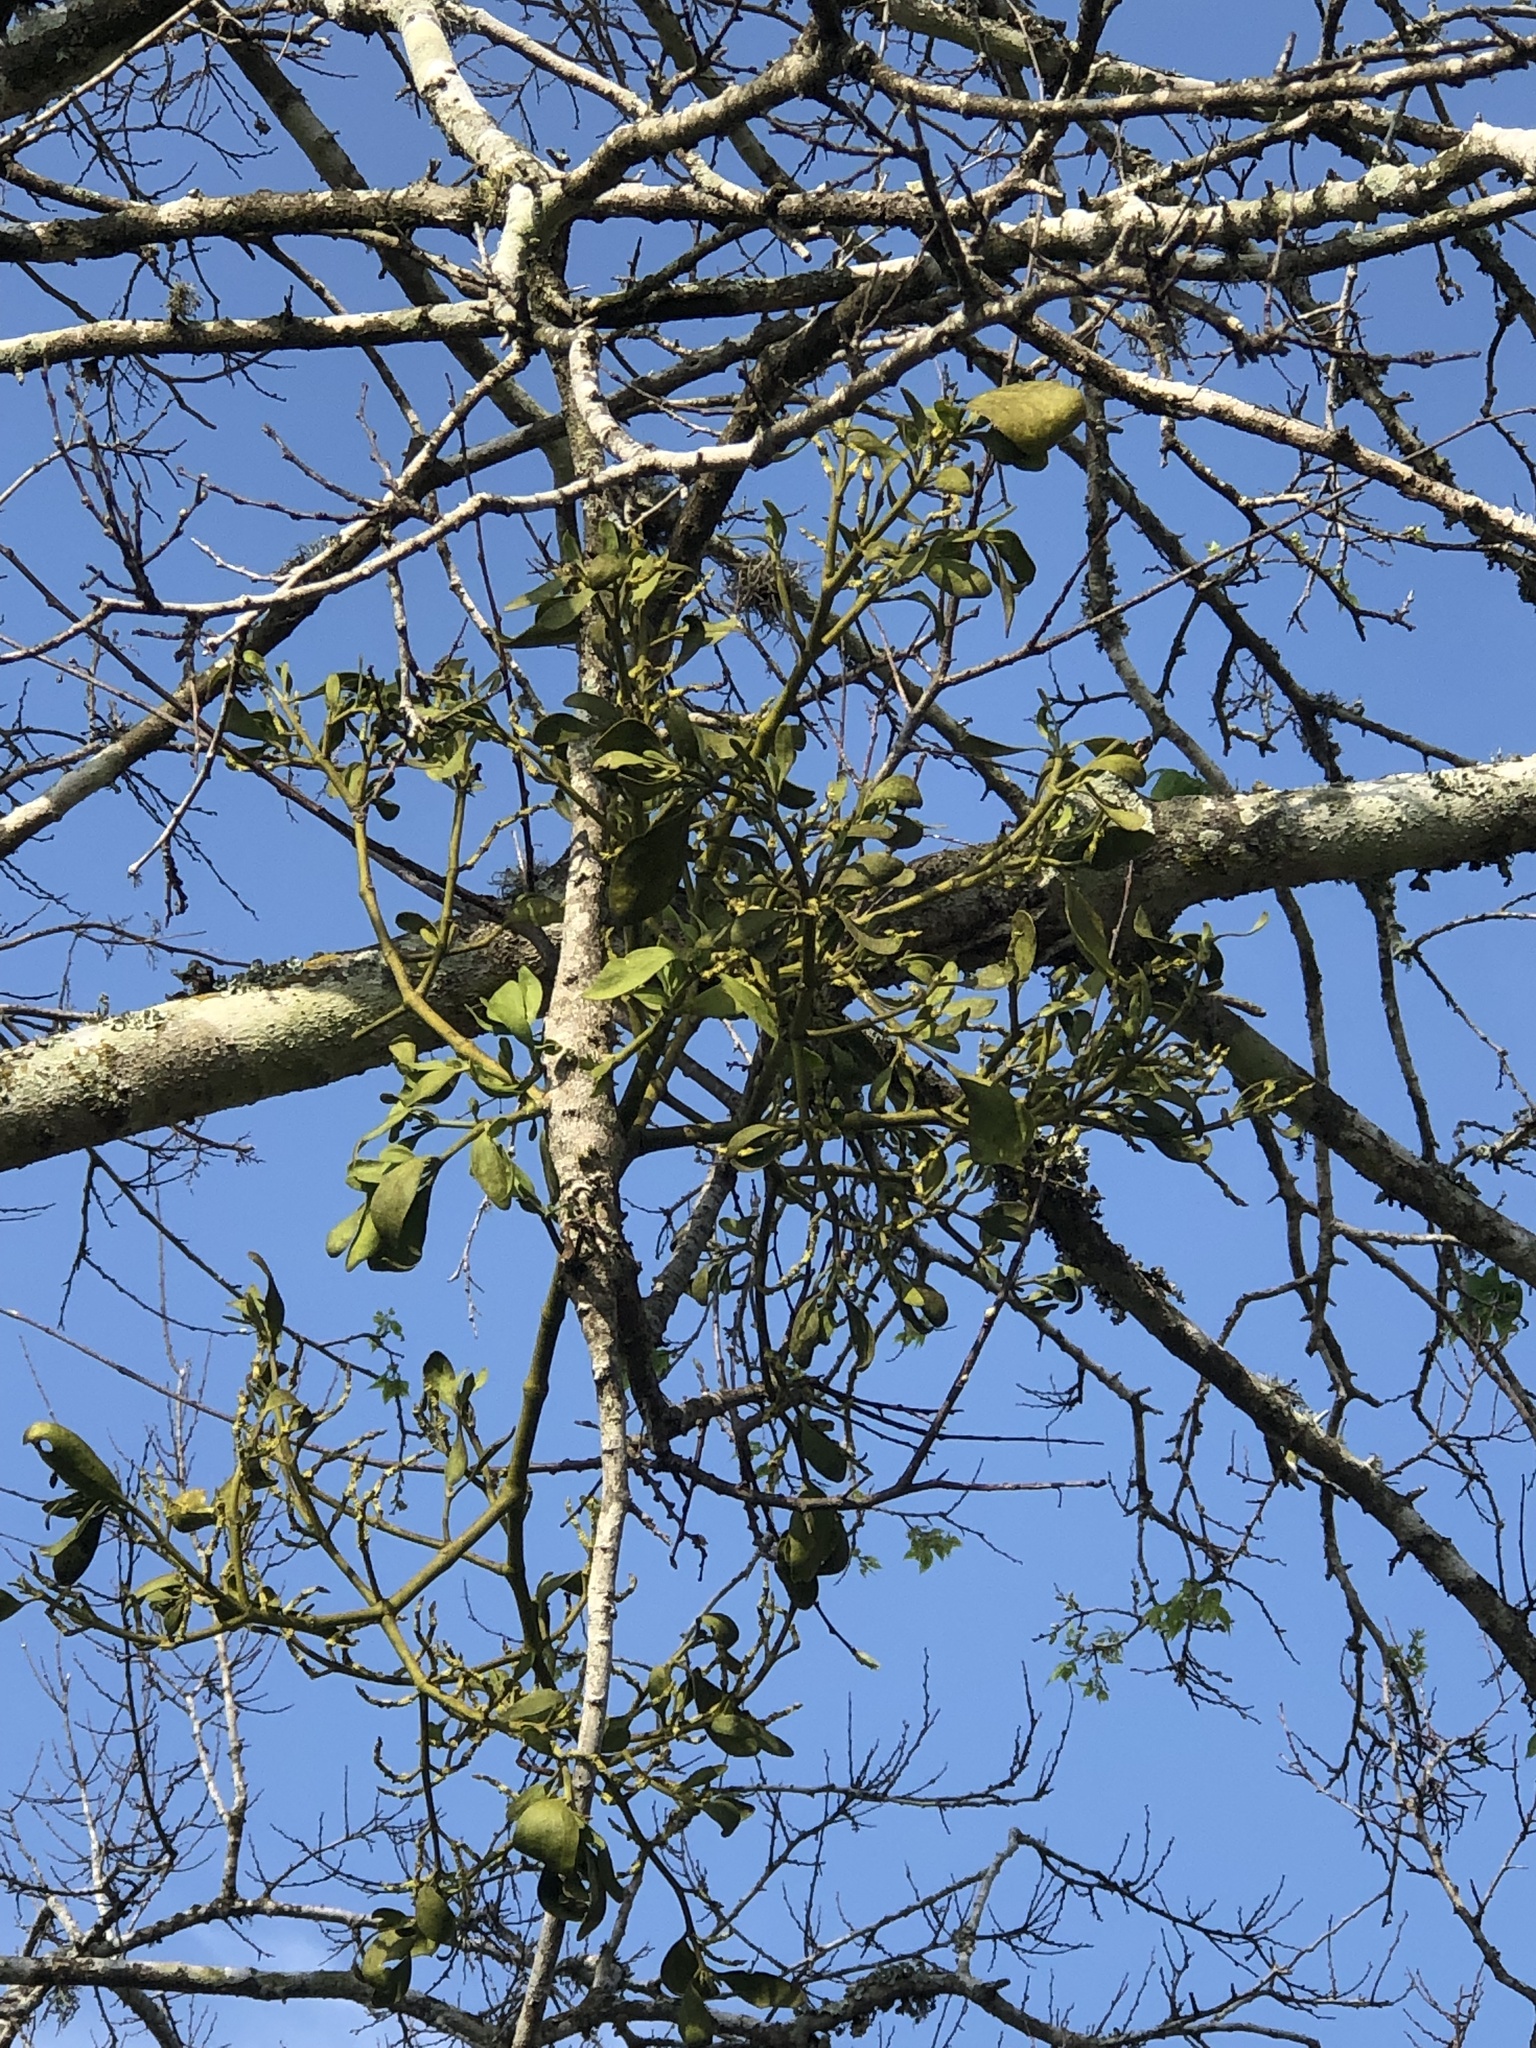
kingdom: Plantae
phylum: Tracheophyta
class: Magnoliopsida
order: Santalales
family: Viscaceae
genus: Phoradendron
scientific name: Phoradendron leucarpum
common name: Pacific mistletoe
